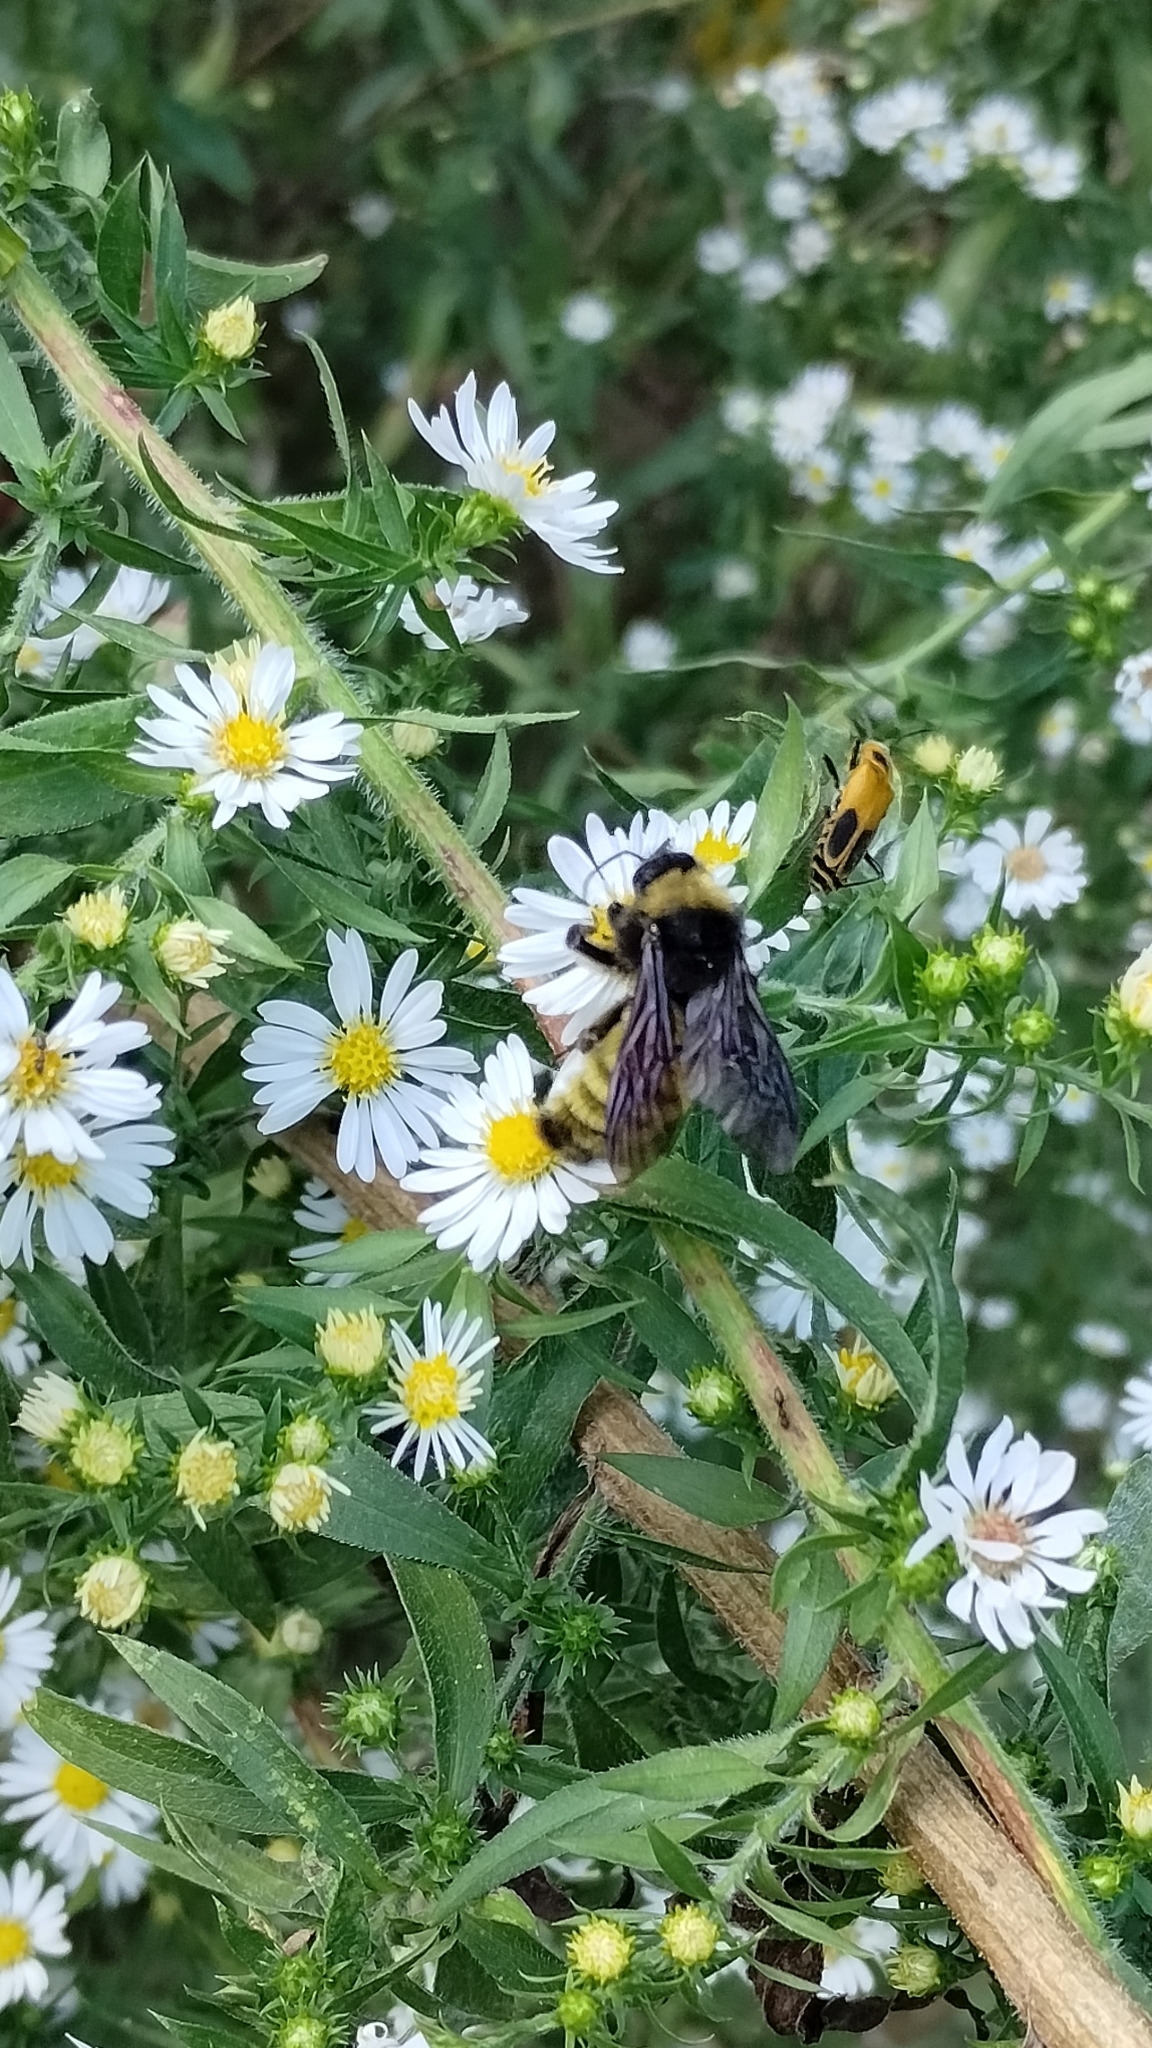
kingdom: Animalia
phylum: Arthropoda
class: Insecta
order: Hymenoptera
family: Apidae
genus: Bombus
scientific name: Bombus pensylvanicus
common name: Bumble bee
